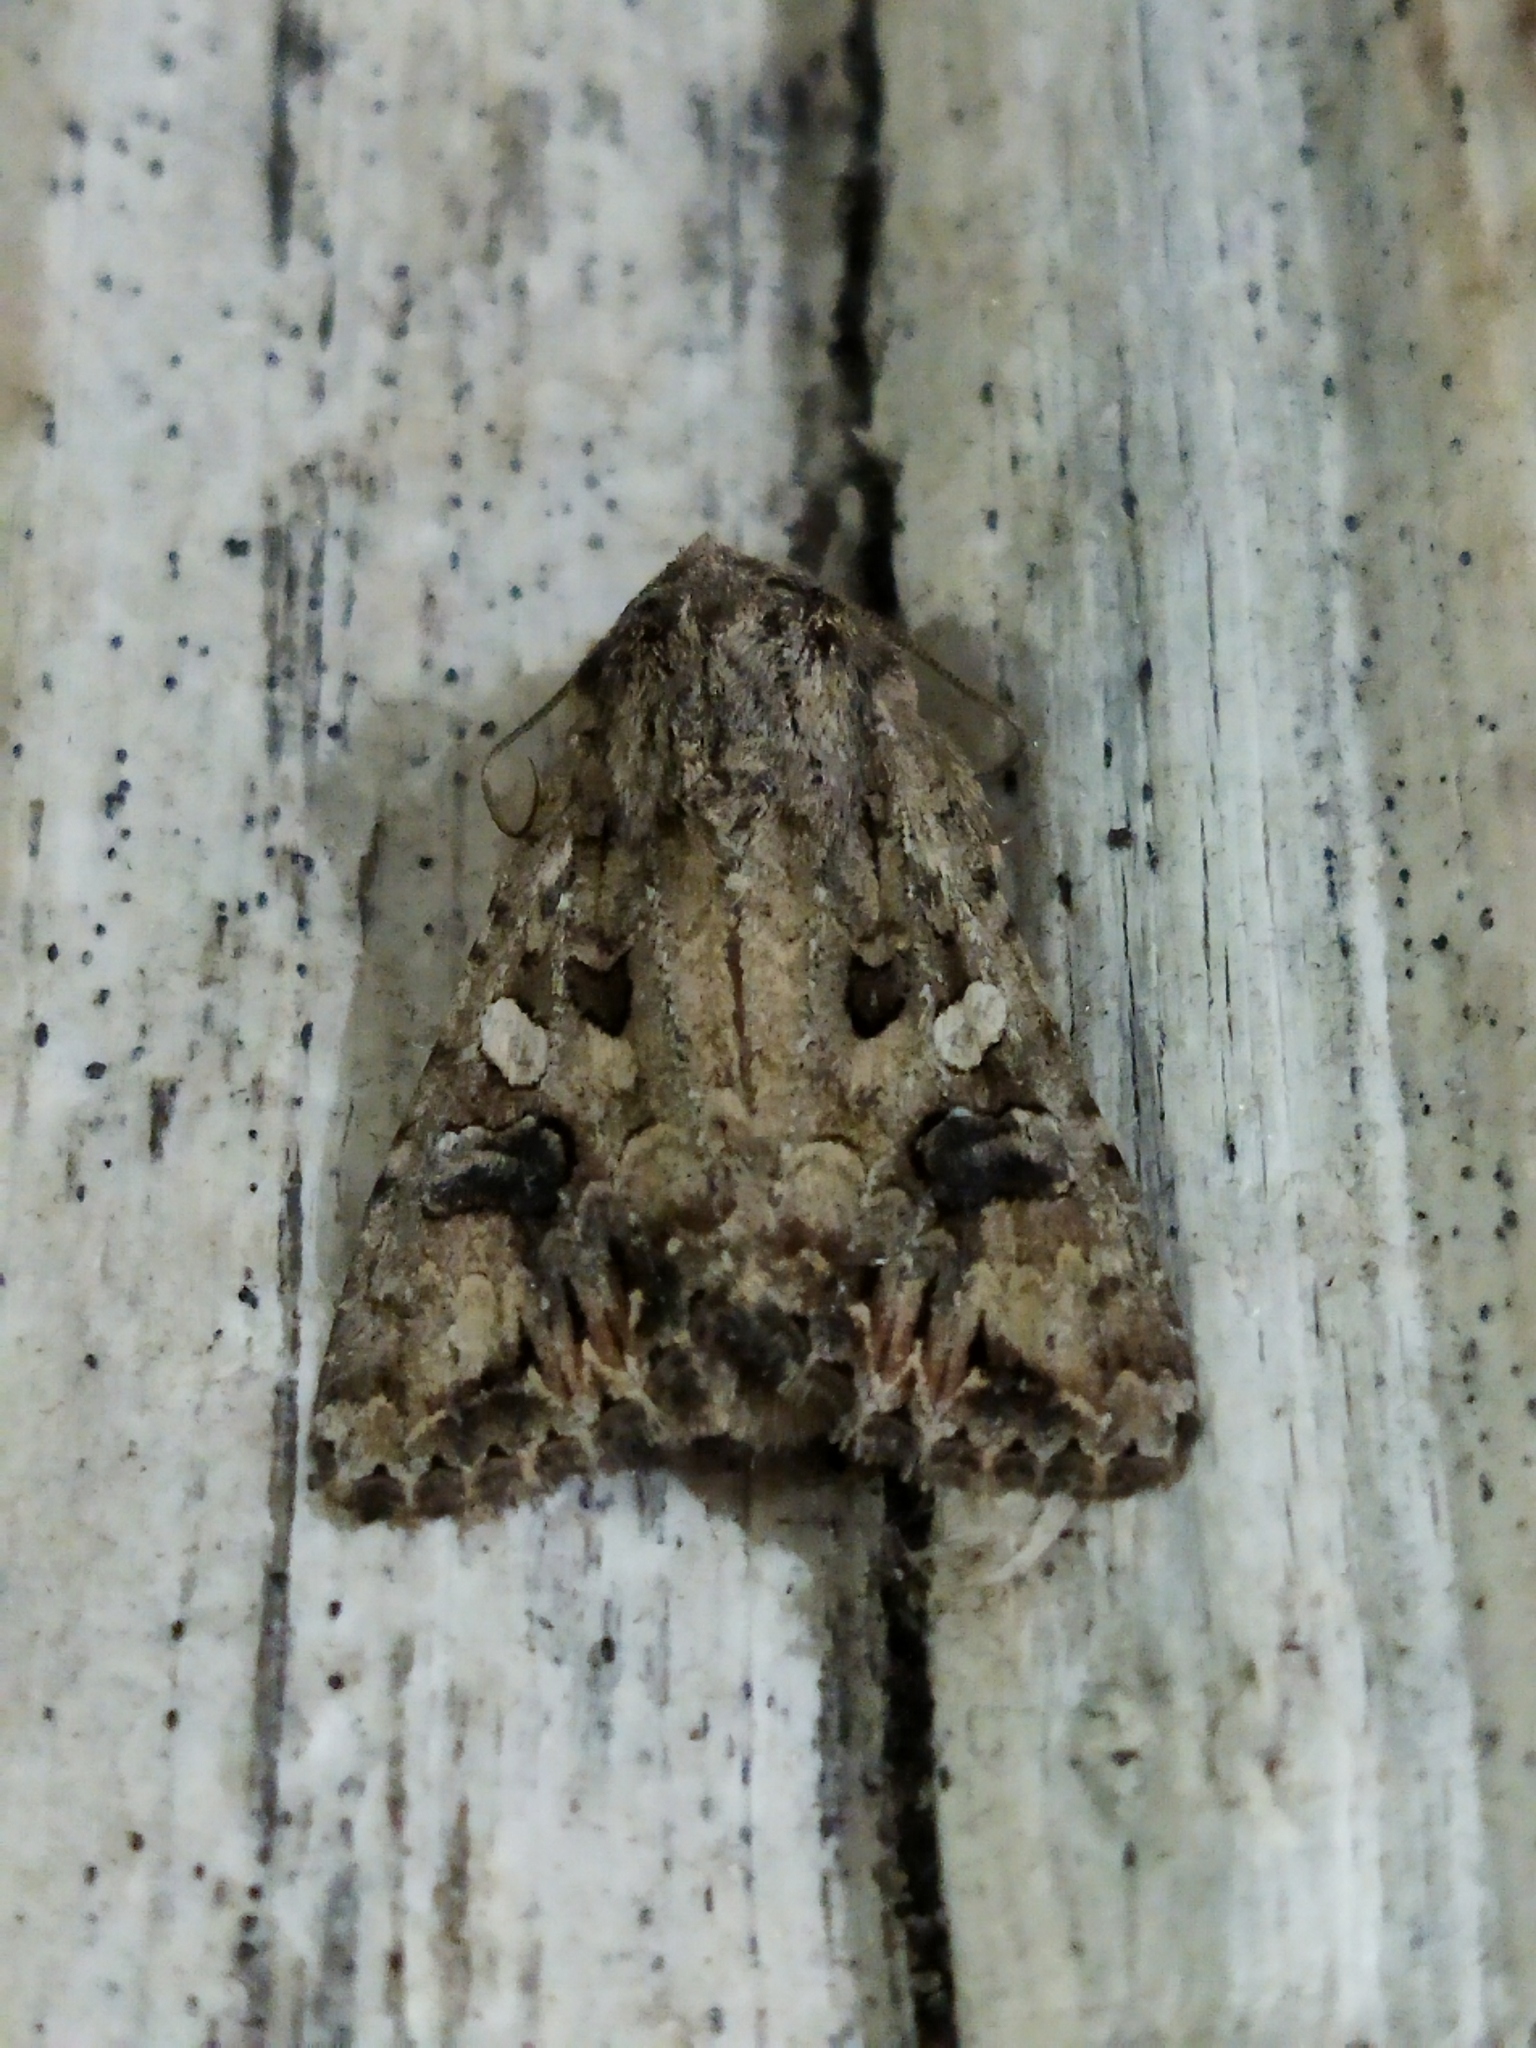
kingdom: Animalia
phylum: Arthropoda
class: Insecta
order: Lepidoptera
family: Noctuidae
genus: Anarta
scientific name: Anarta pugnax
